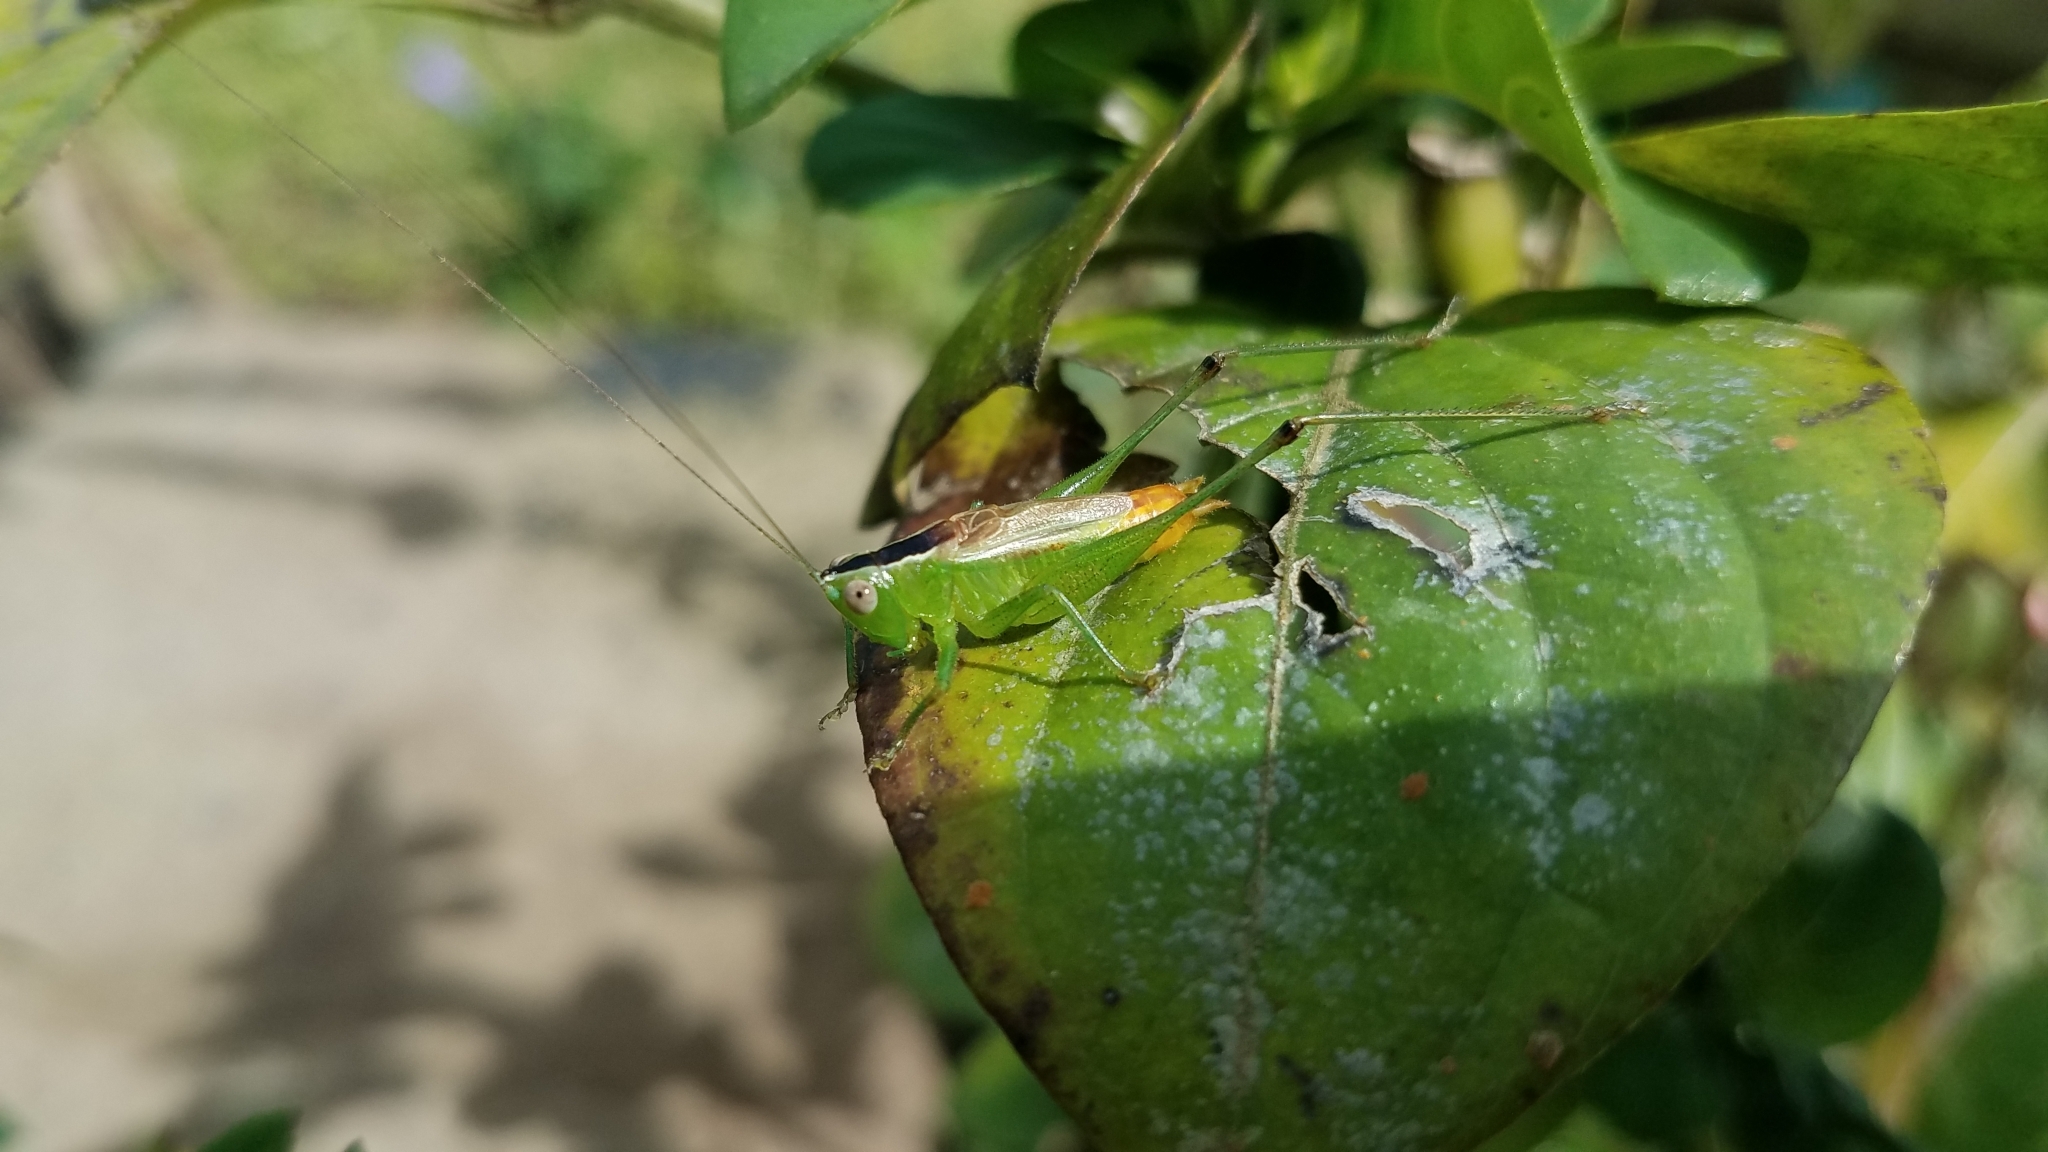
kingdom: Animalia
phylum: Arthropoda
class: Insecta
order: Orthoptera
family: Tettigoniidae
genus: Conocephalus
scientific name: Conocephalus ictus
